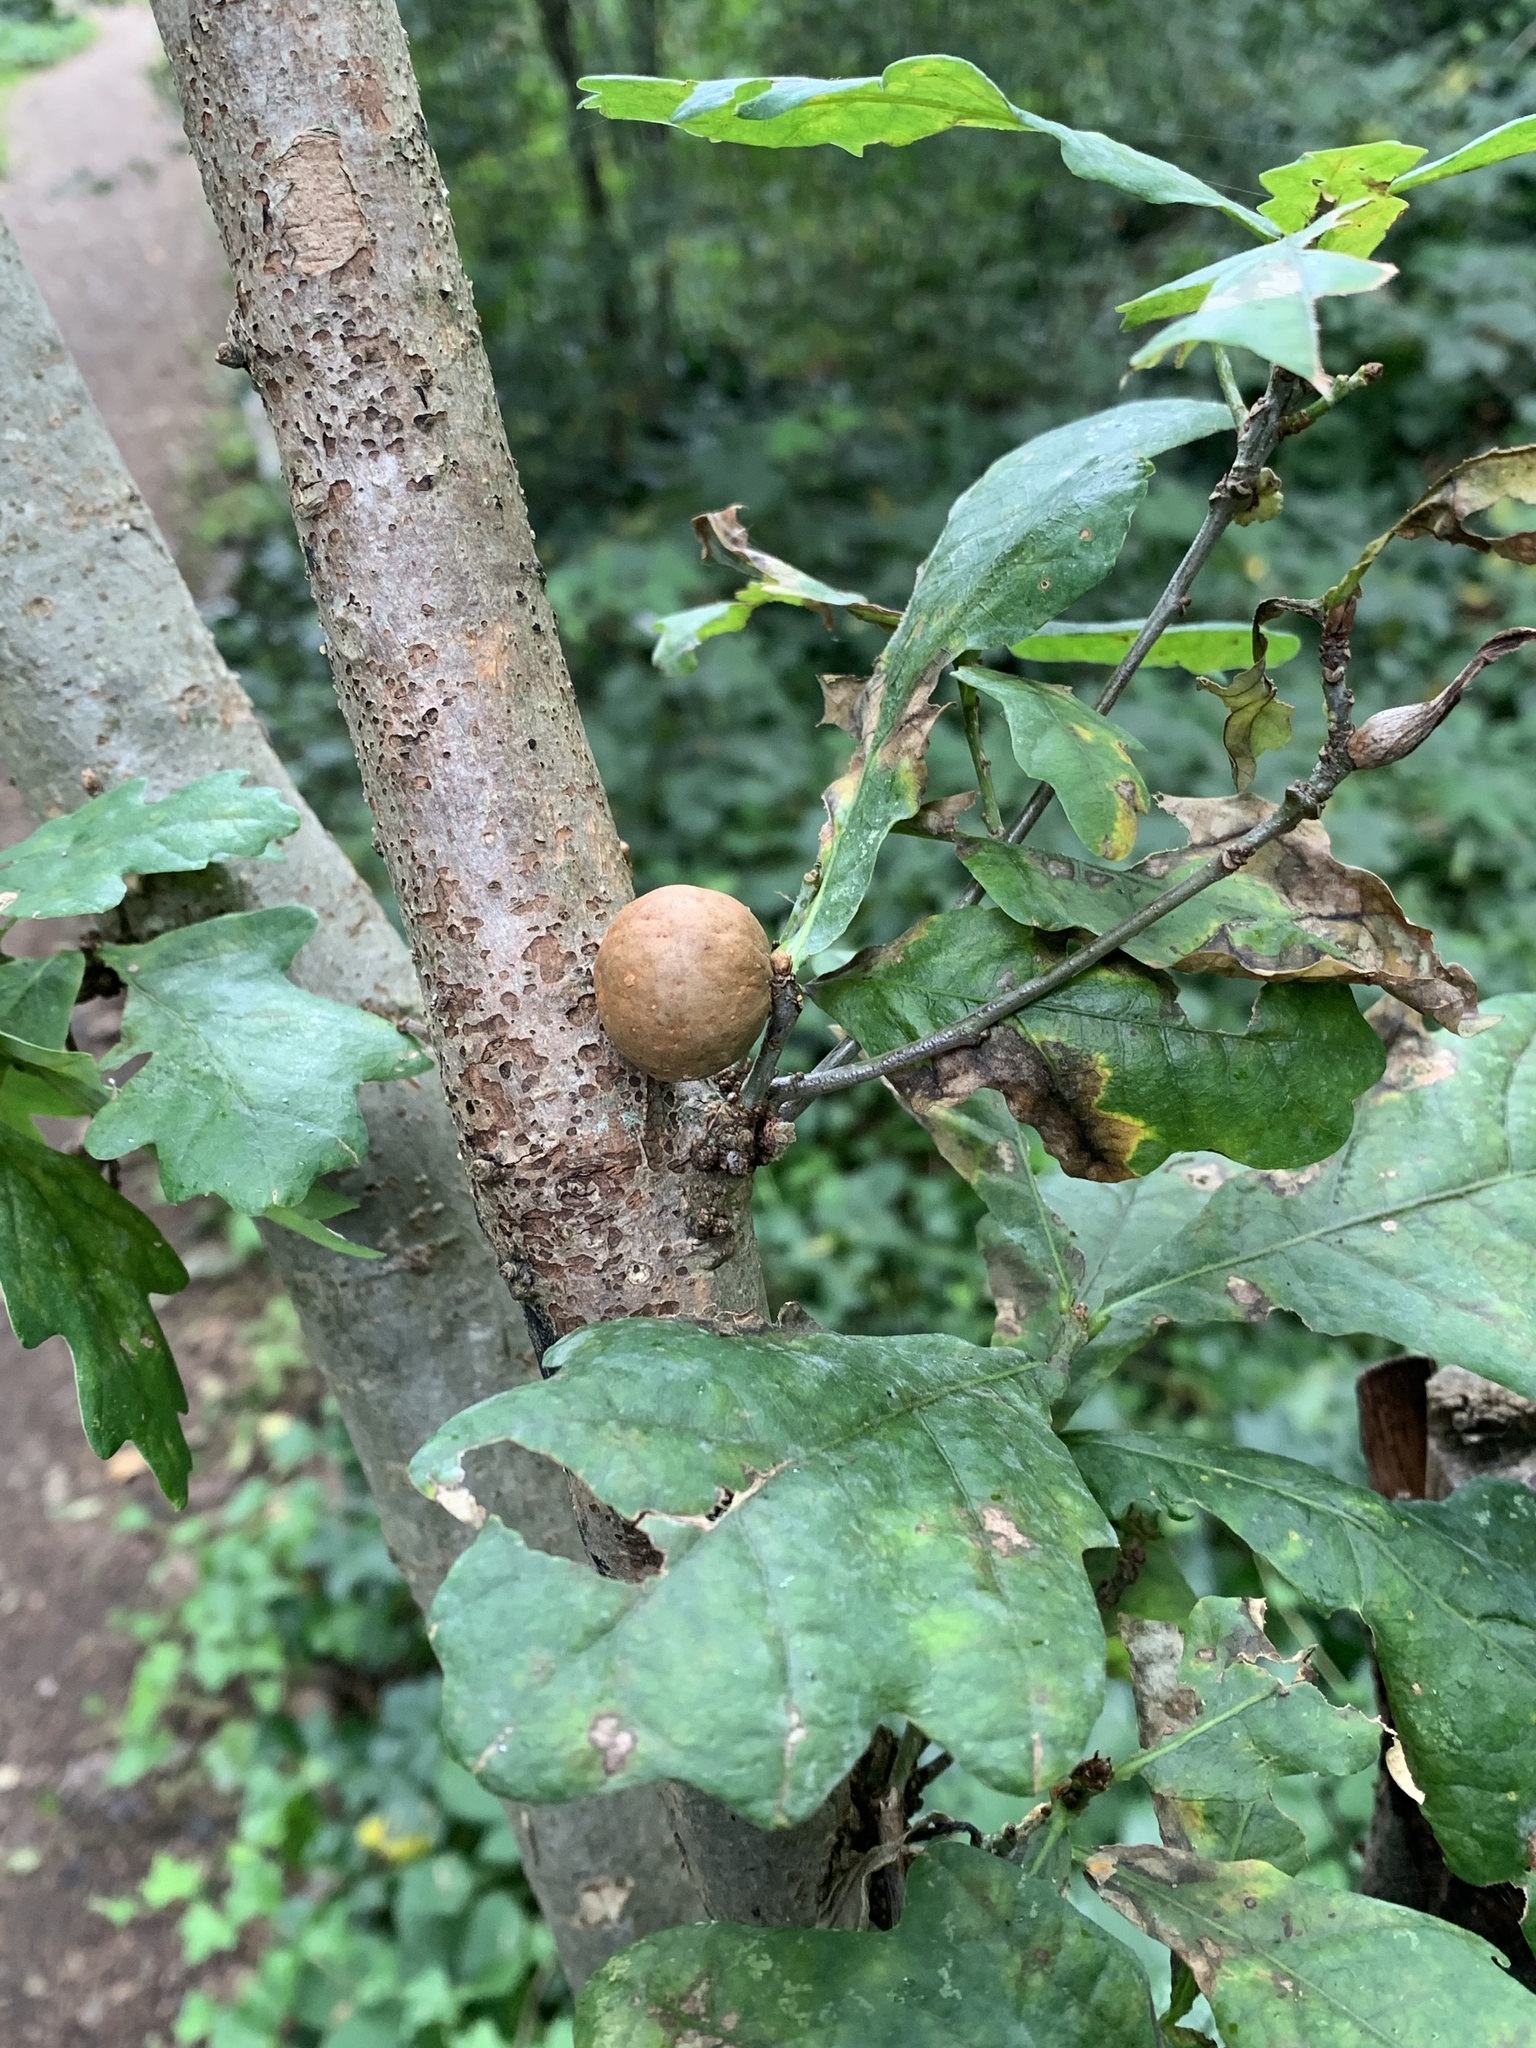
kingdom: Animalia
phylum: Arthropoda
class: Insecta
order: Hymenoptera
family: Cynipidae
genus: Andricus
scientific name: Andricus kollari
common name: Marble gall
